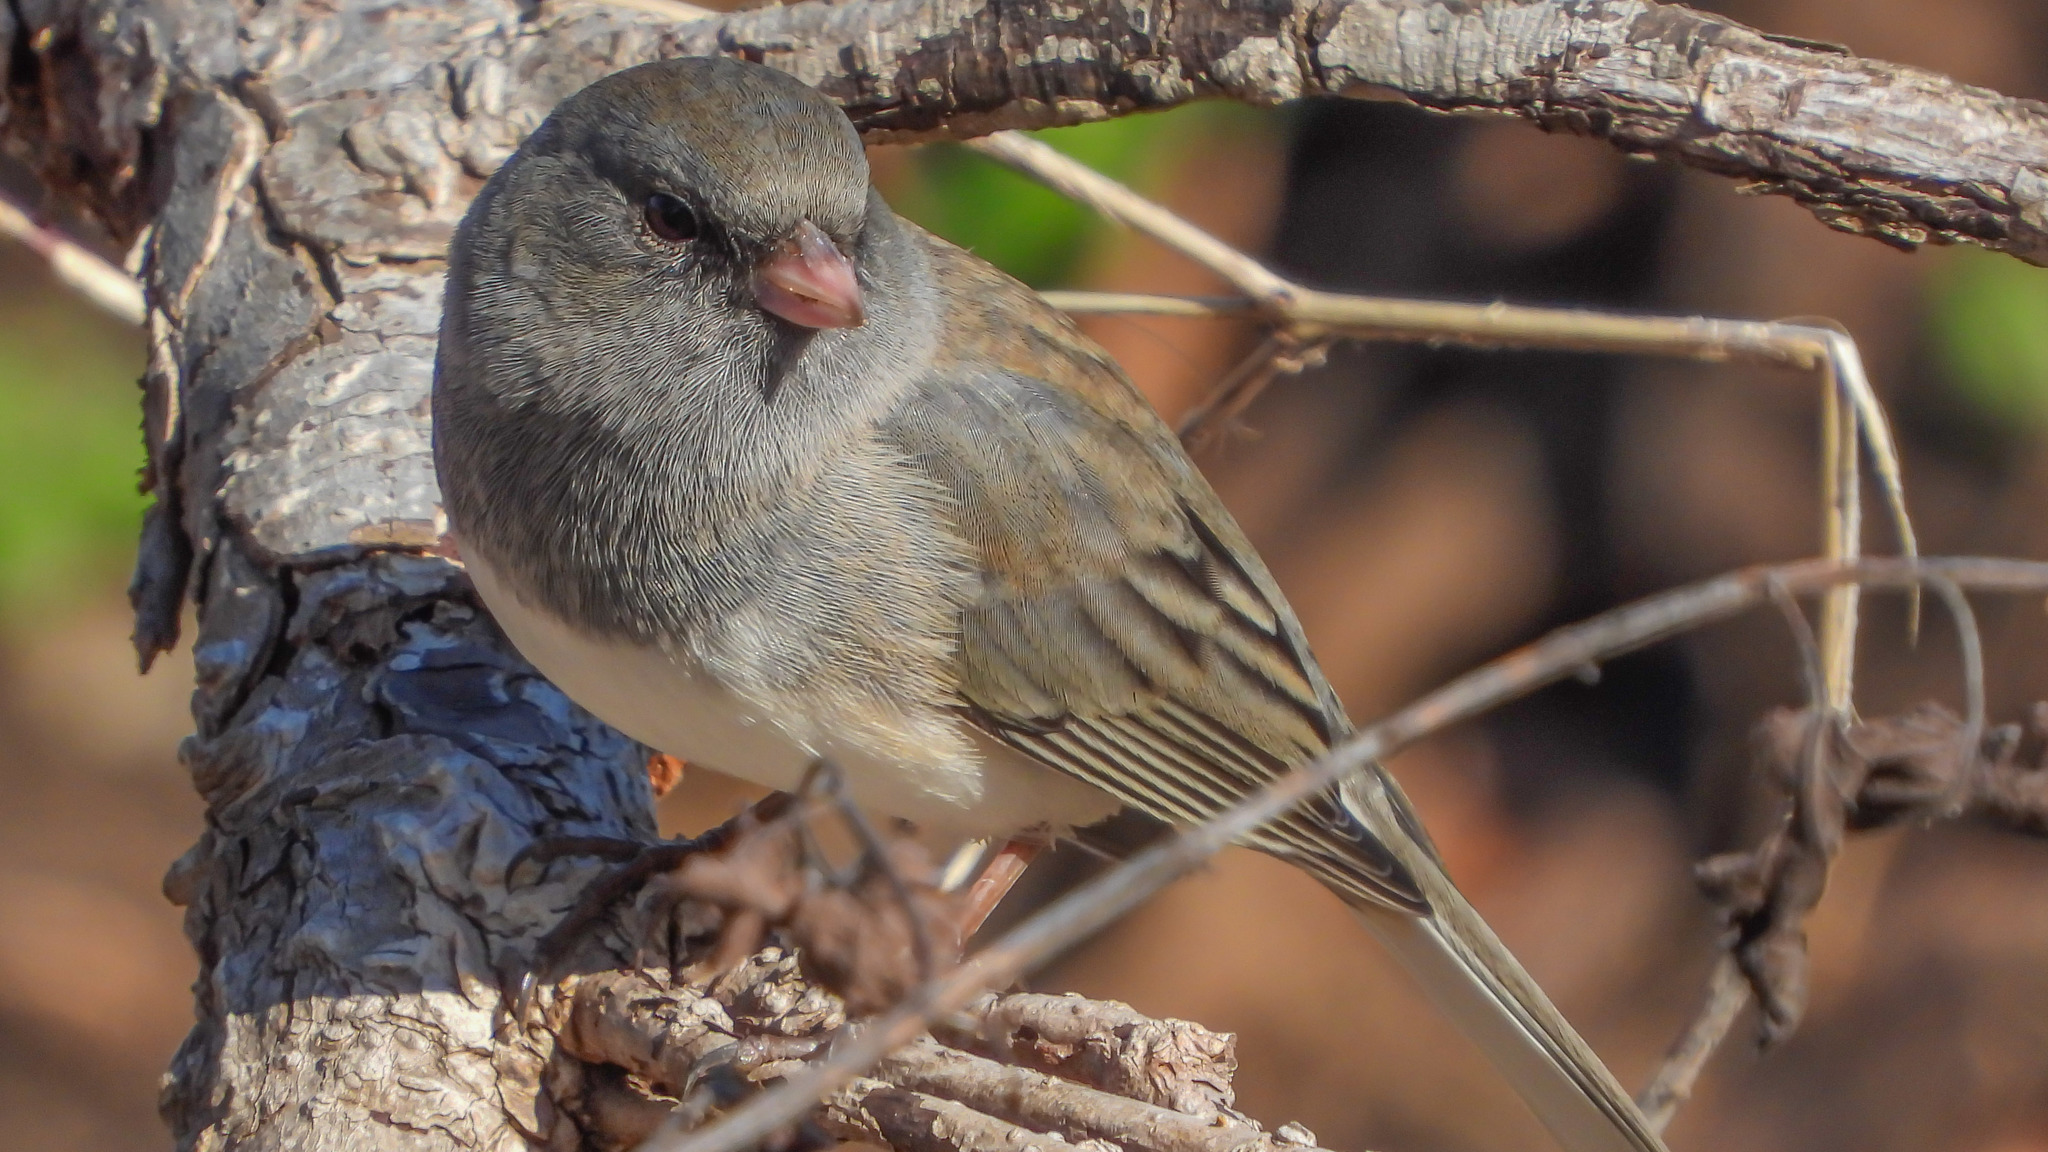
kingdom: Animalia
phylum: Chordata
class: Aves
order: Passeriformes
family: Passerellidae
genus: Junco
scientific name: Junco hyemalis
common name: Dark-eyed junco
